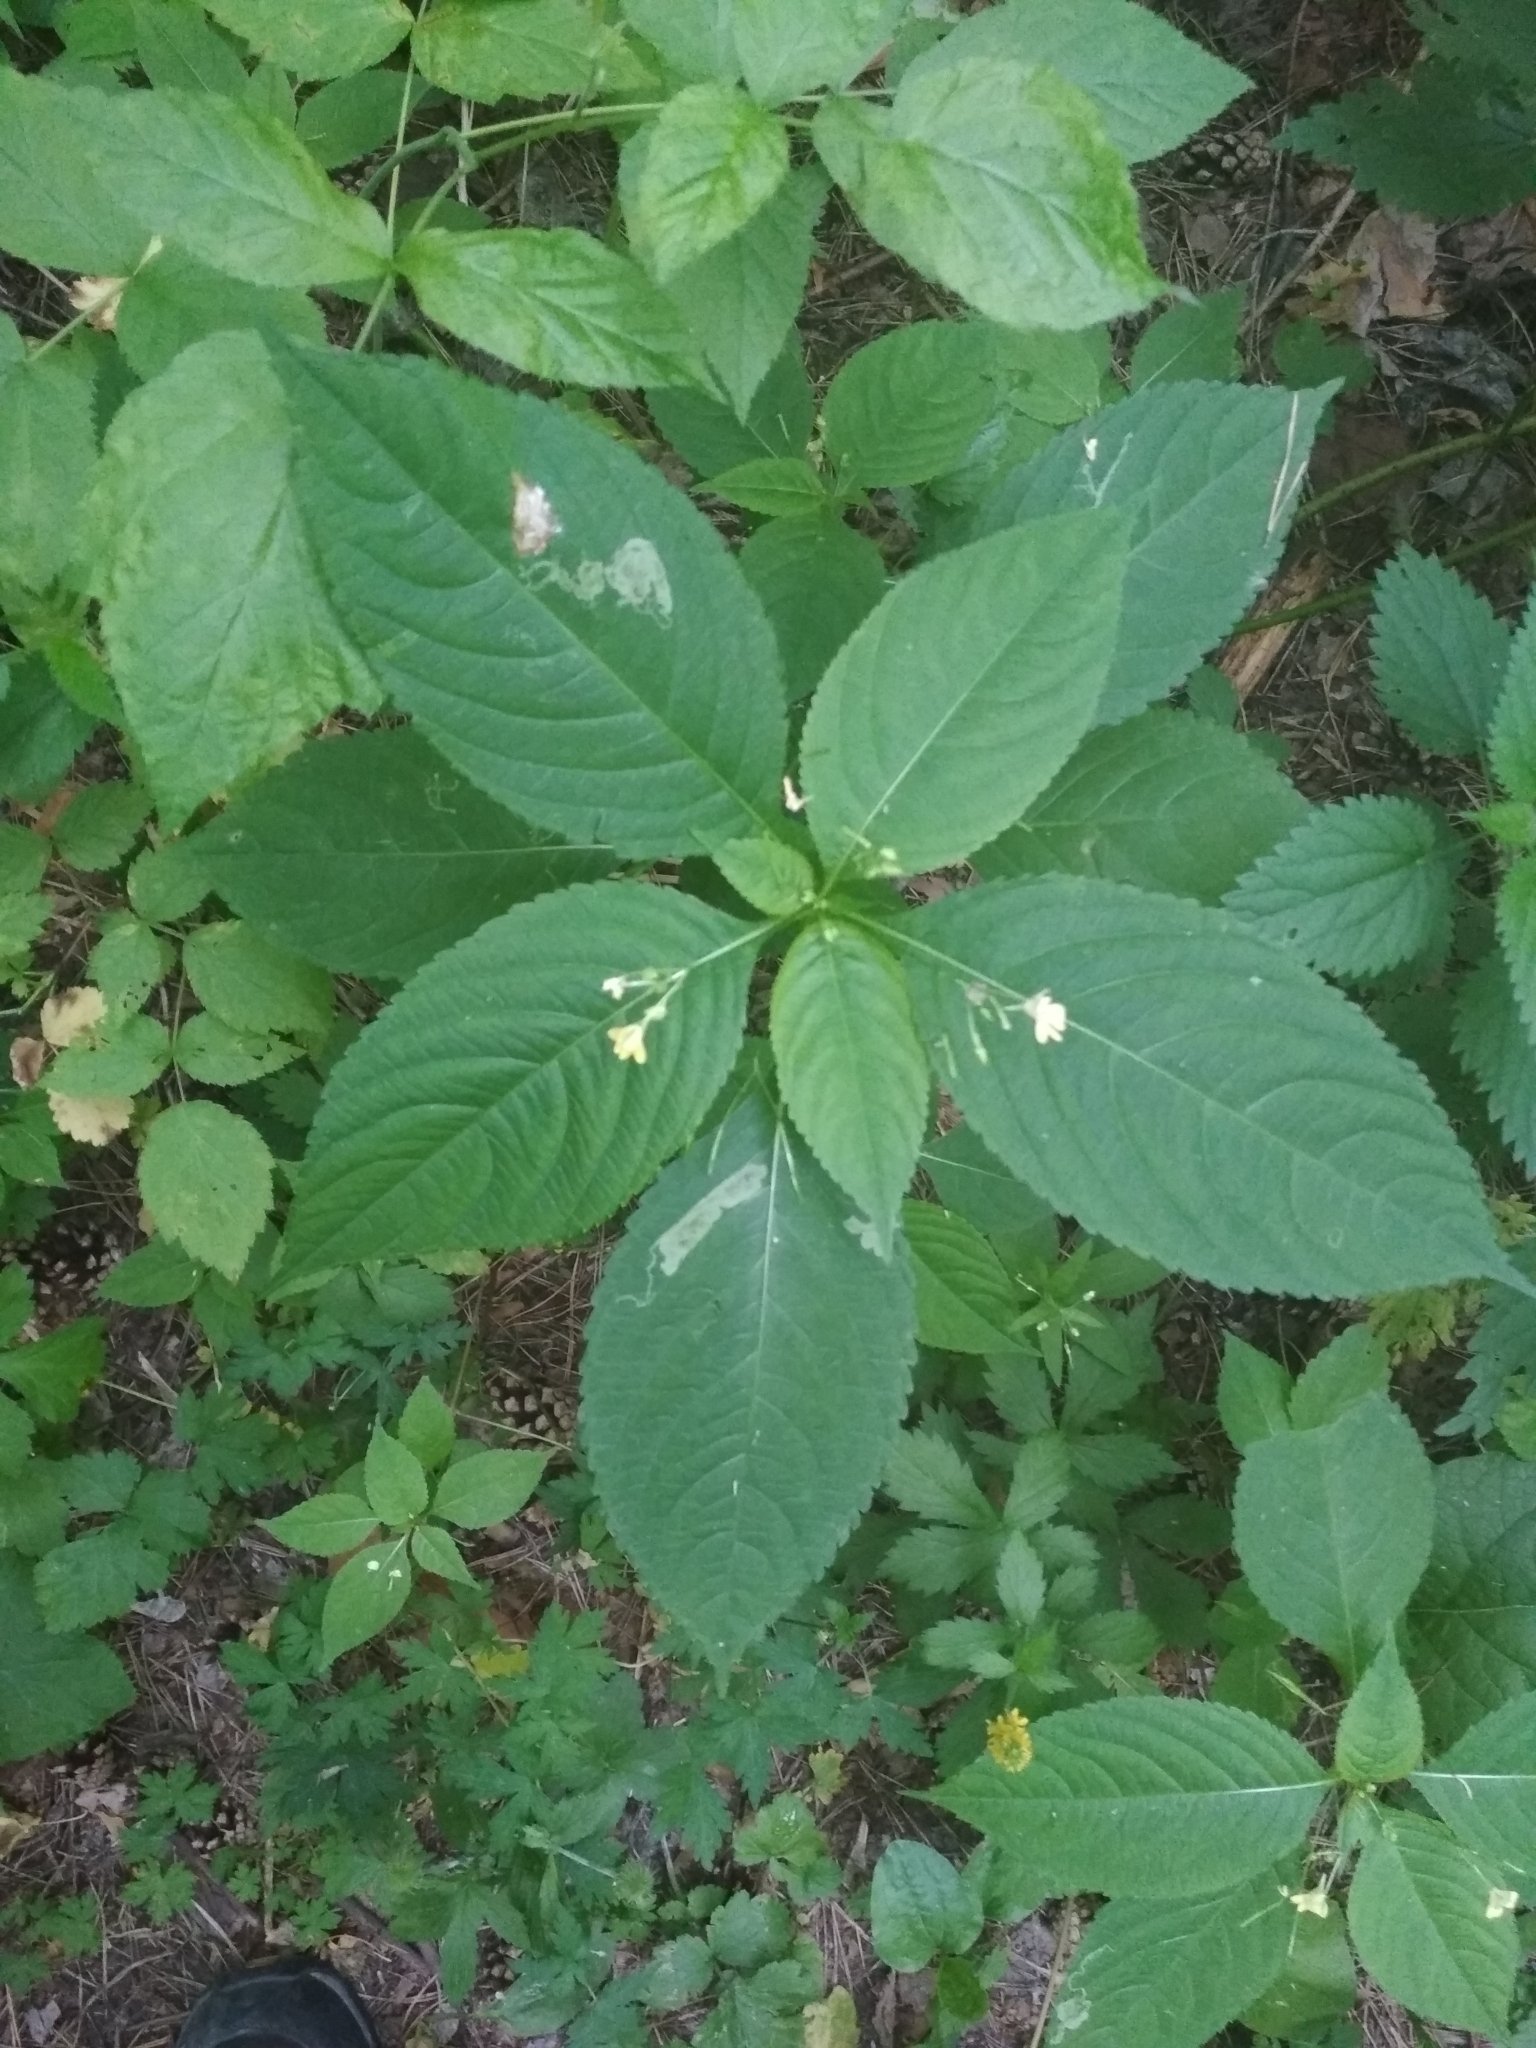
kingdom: Plantae
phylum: Tracheophyta
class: Magnoliopsida
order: Ericales
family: Balsaminaceae
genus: Impatiens
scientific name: Impatiens parviflora
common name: Small balsam
